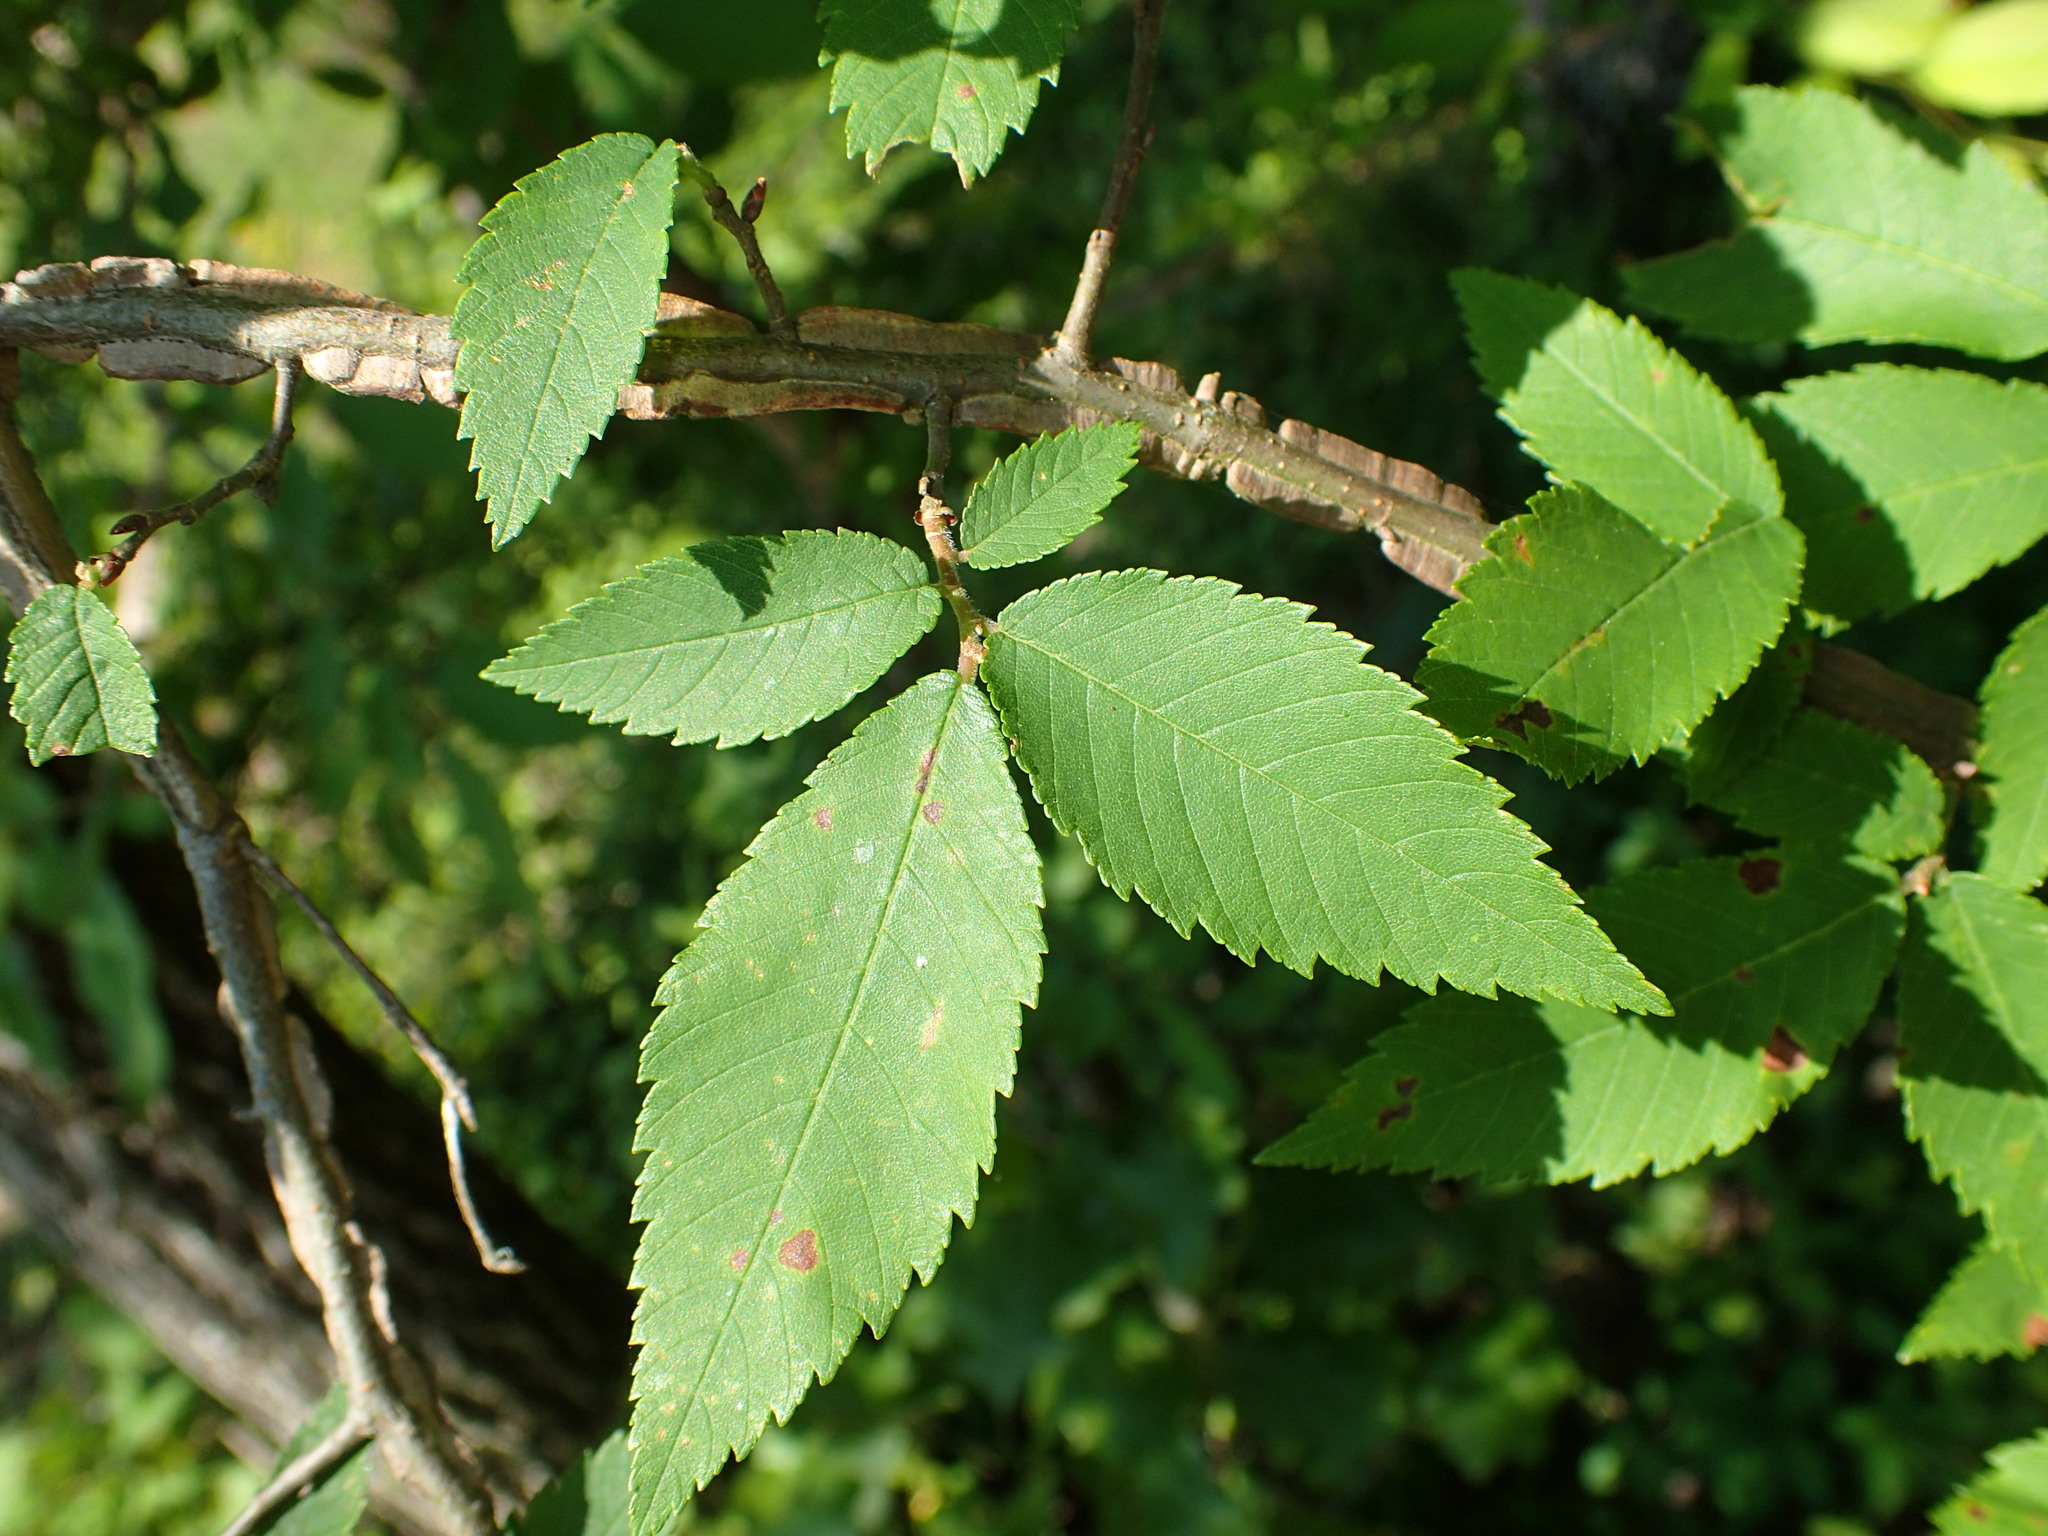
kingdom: Plantae
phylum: Tracheophyta
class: Magnoliopsida
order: Rosales
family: Ulmaceae
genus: Ulmus
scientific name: Ulmus alata
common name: Winged elm
